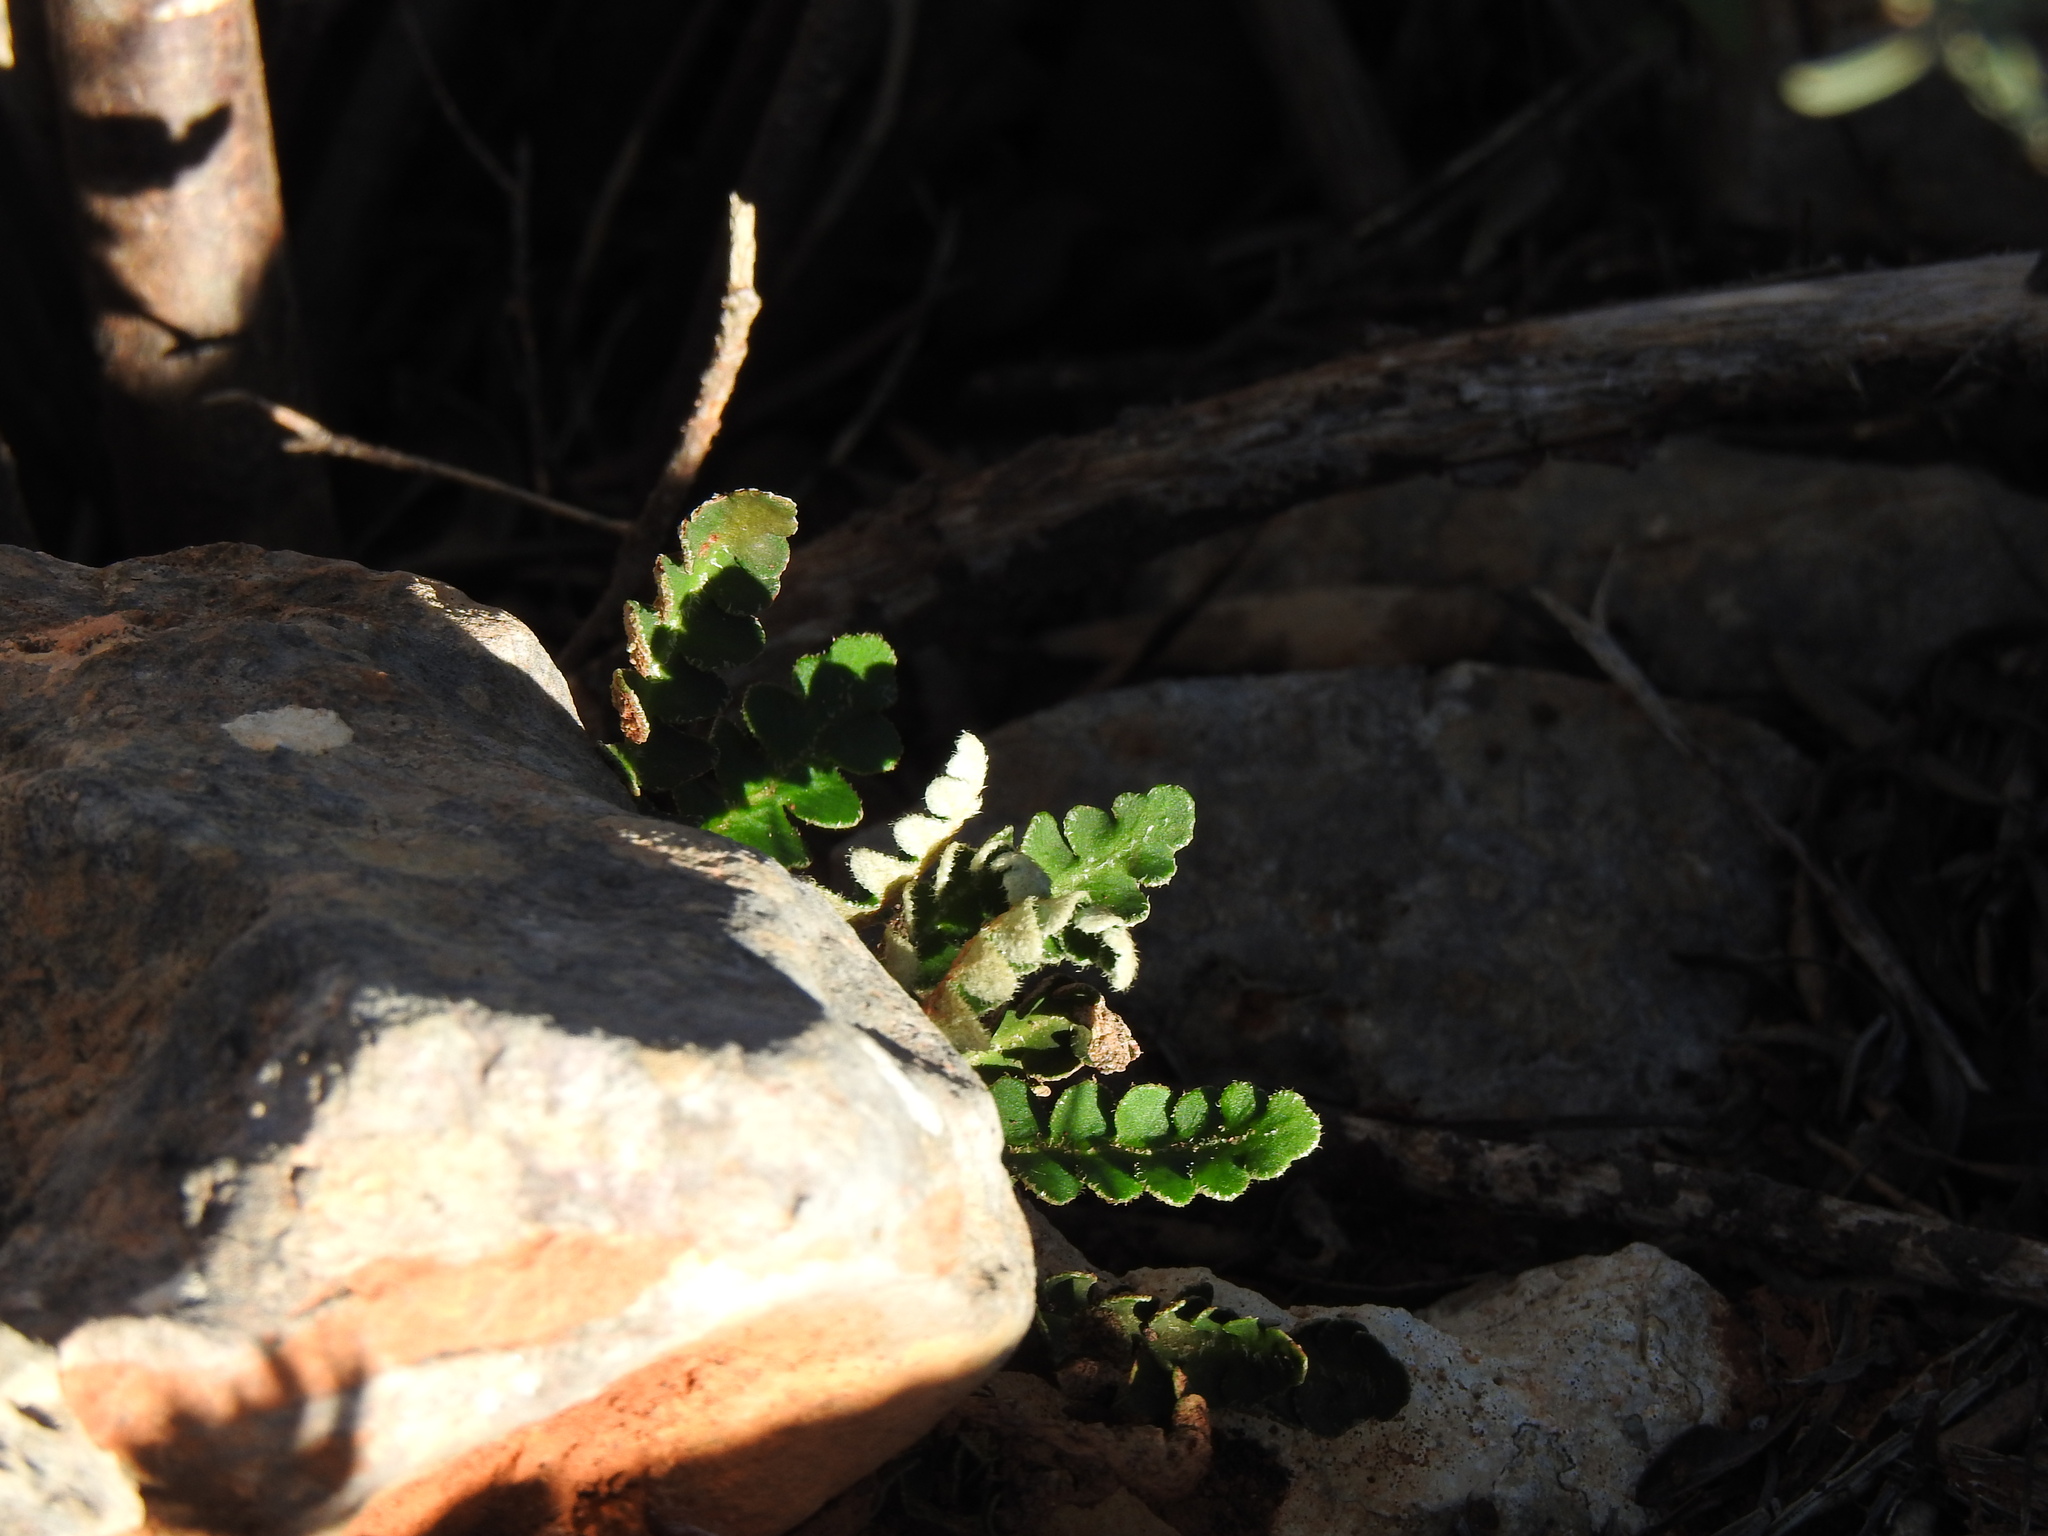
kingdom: Plantae
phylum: Tracheophyta
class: Polypodiopsida
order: Polypodiales
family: Aspleniaceae
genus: Asplenium
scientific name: Asplenium ceterach
